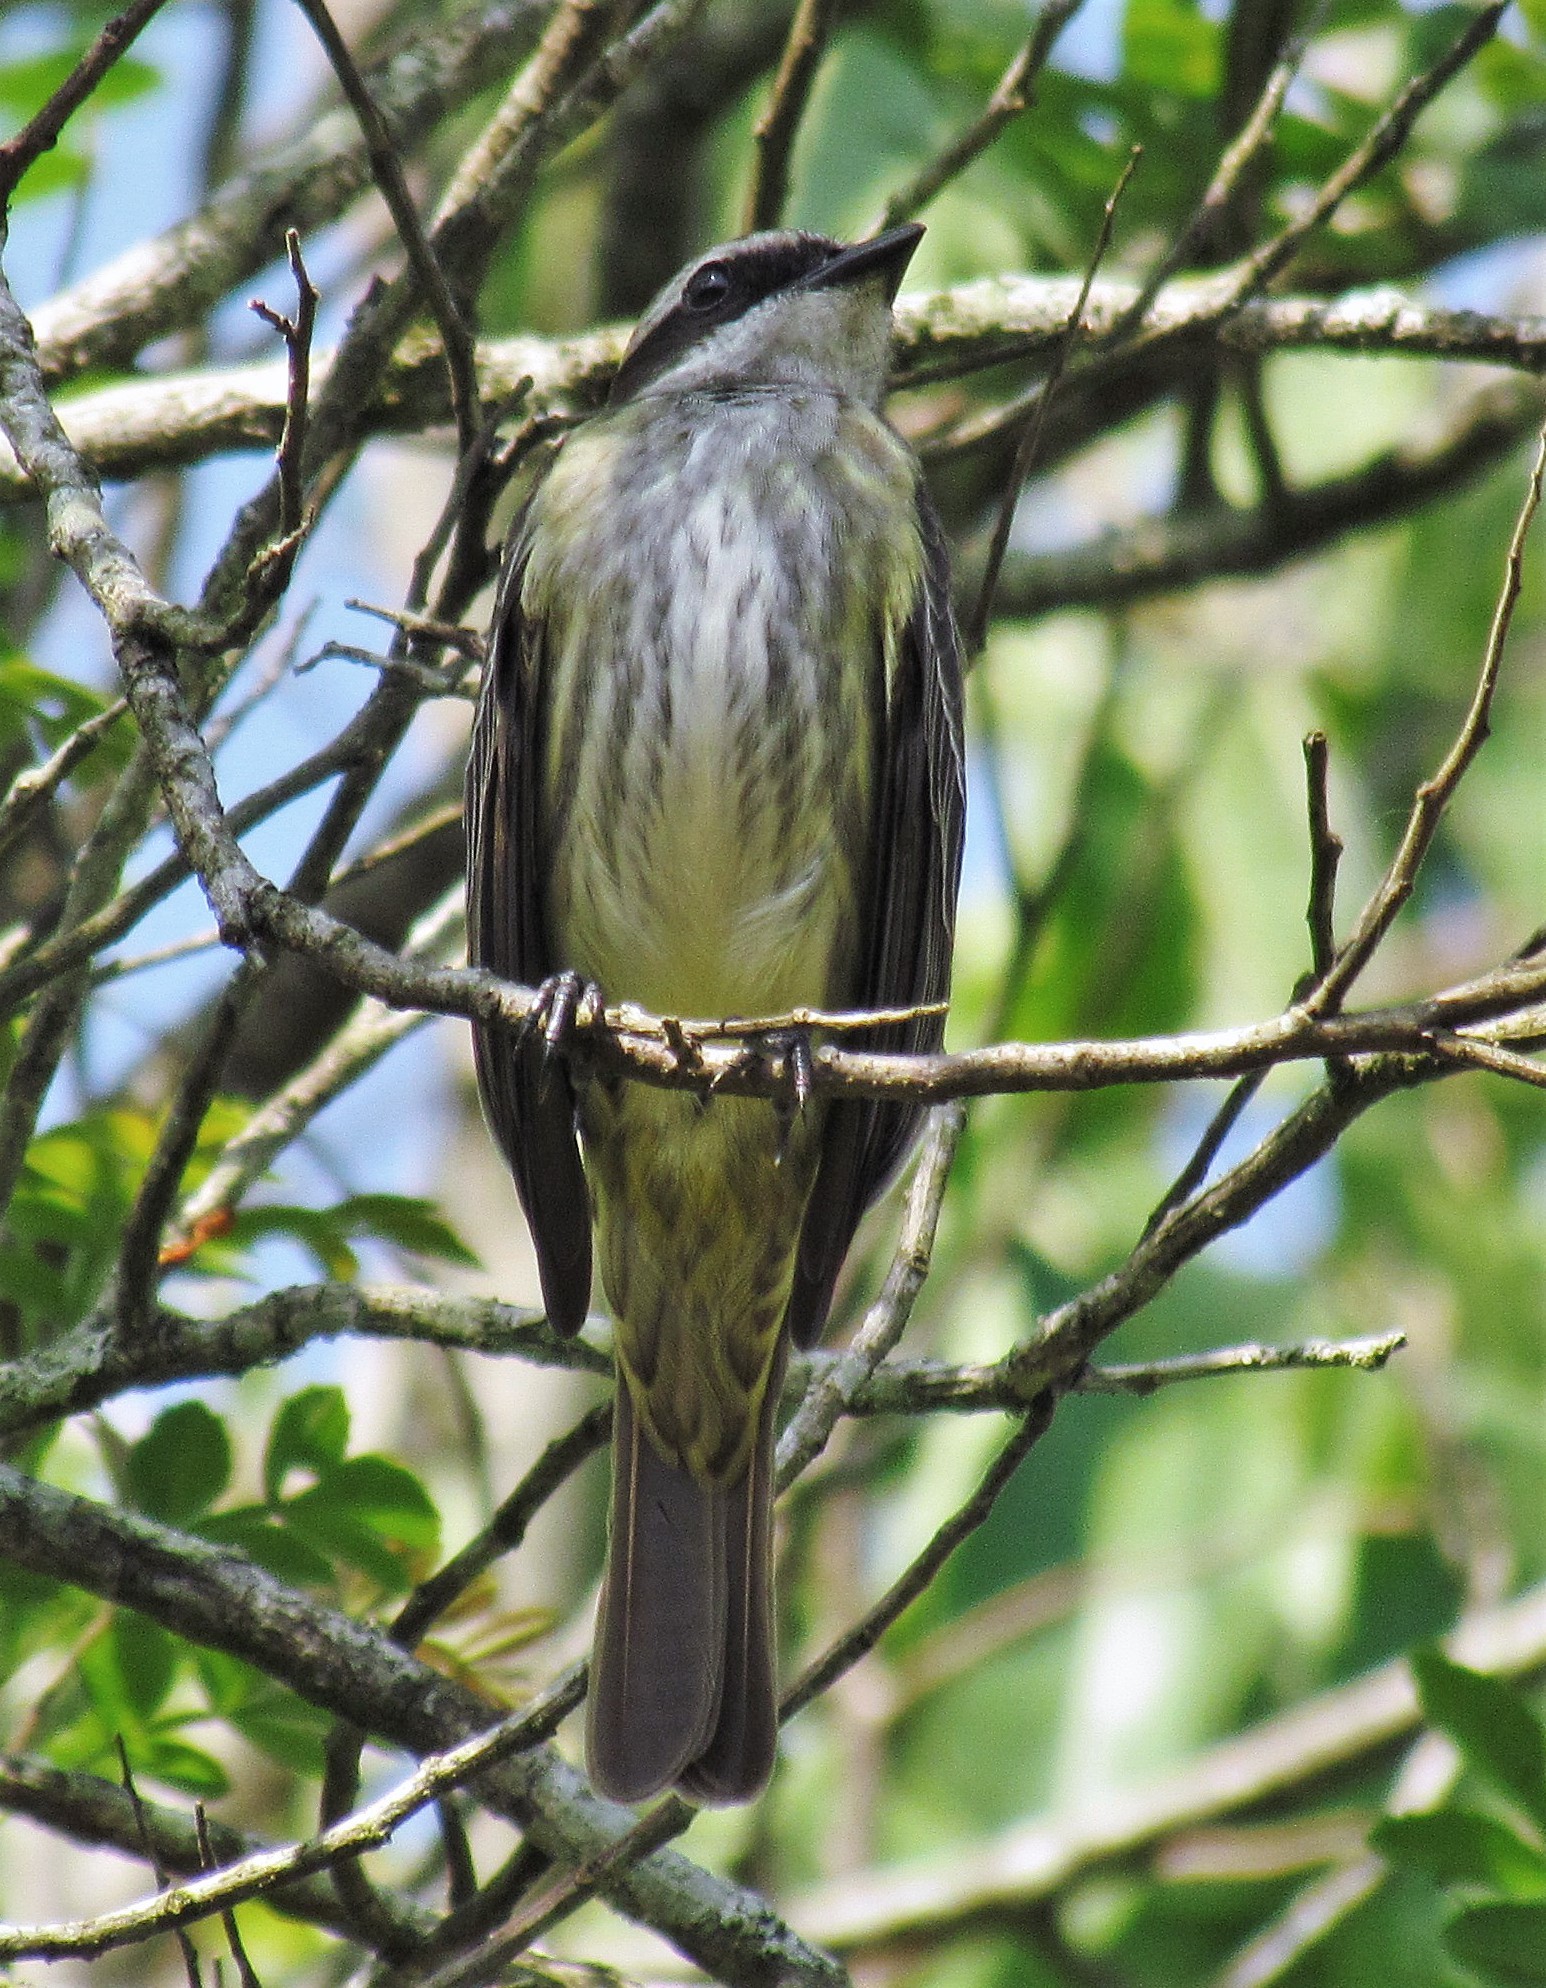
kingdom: Animalia
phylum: Chordata
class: Aves
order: Passeriformes
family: Tyrannidae
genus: Legatus
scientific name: Legatus leucophaius
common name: Piratic flycatcher
